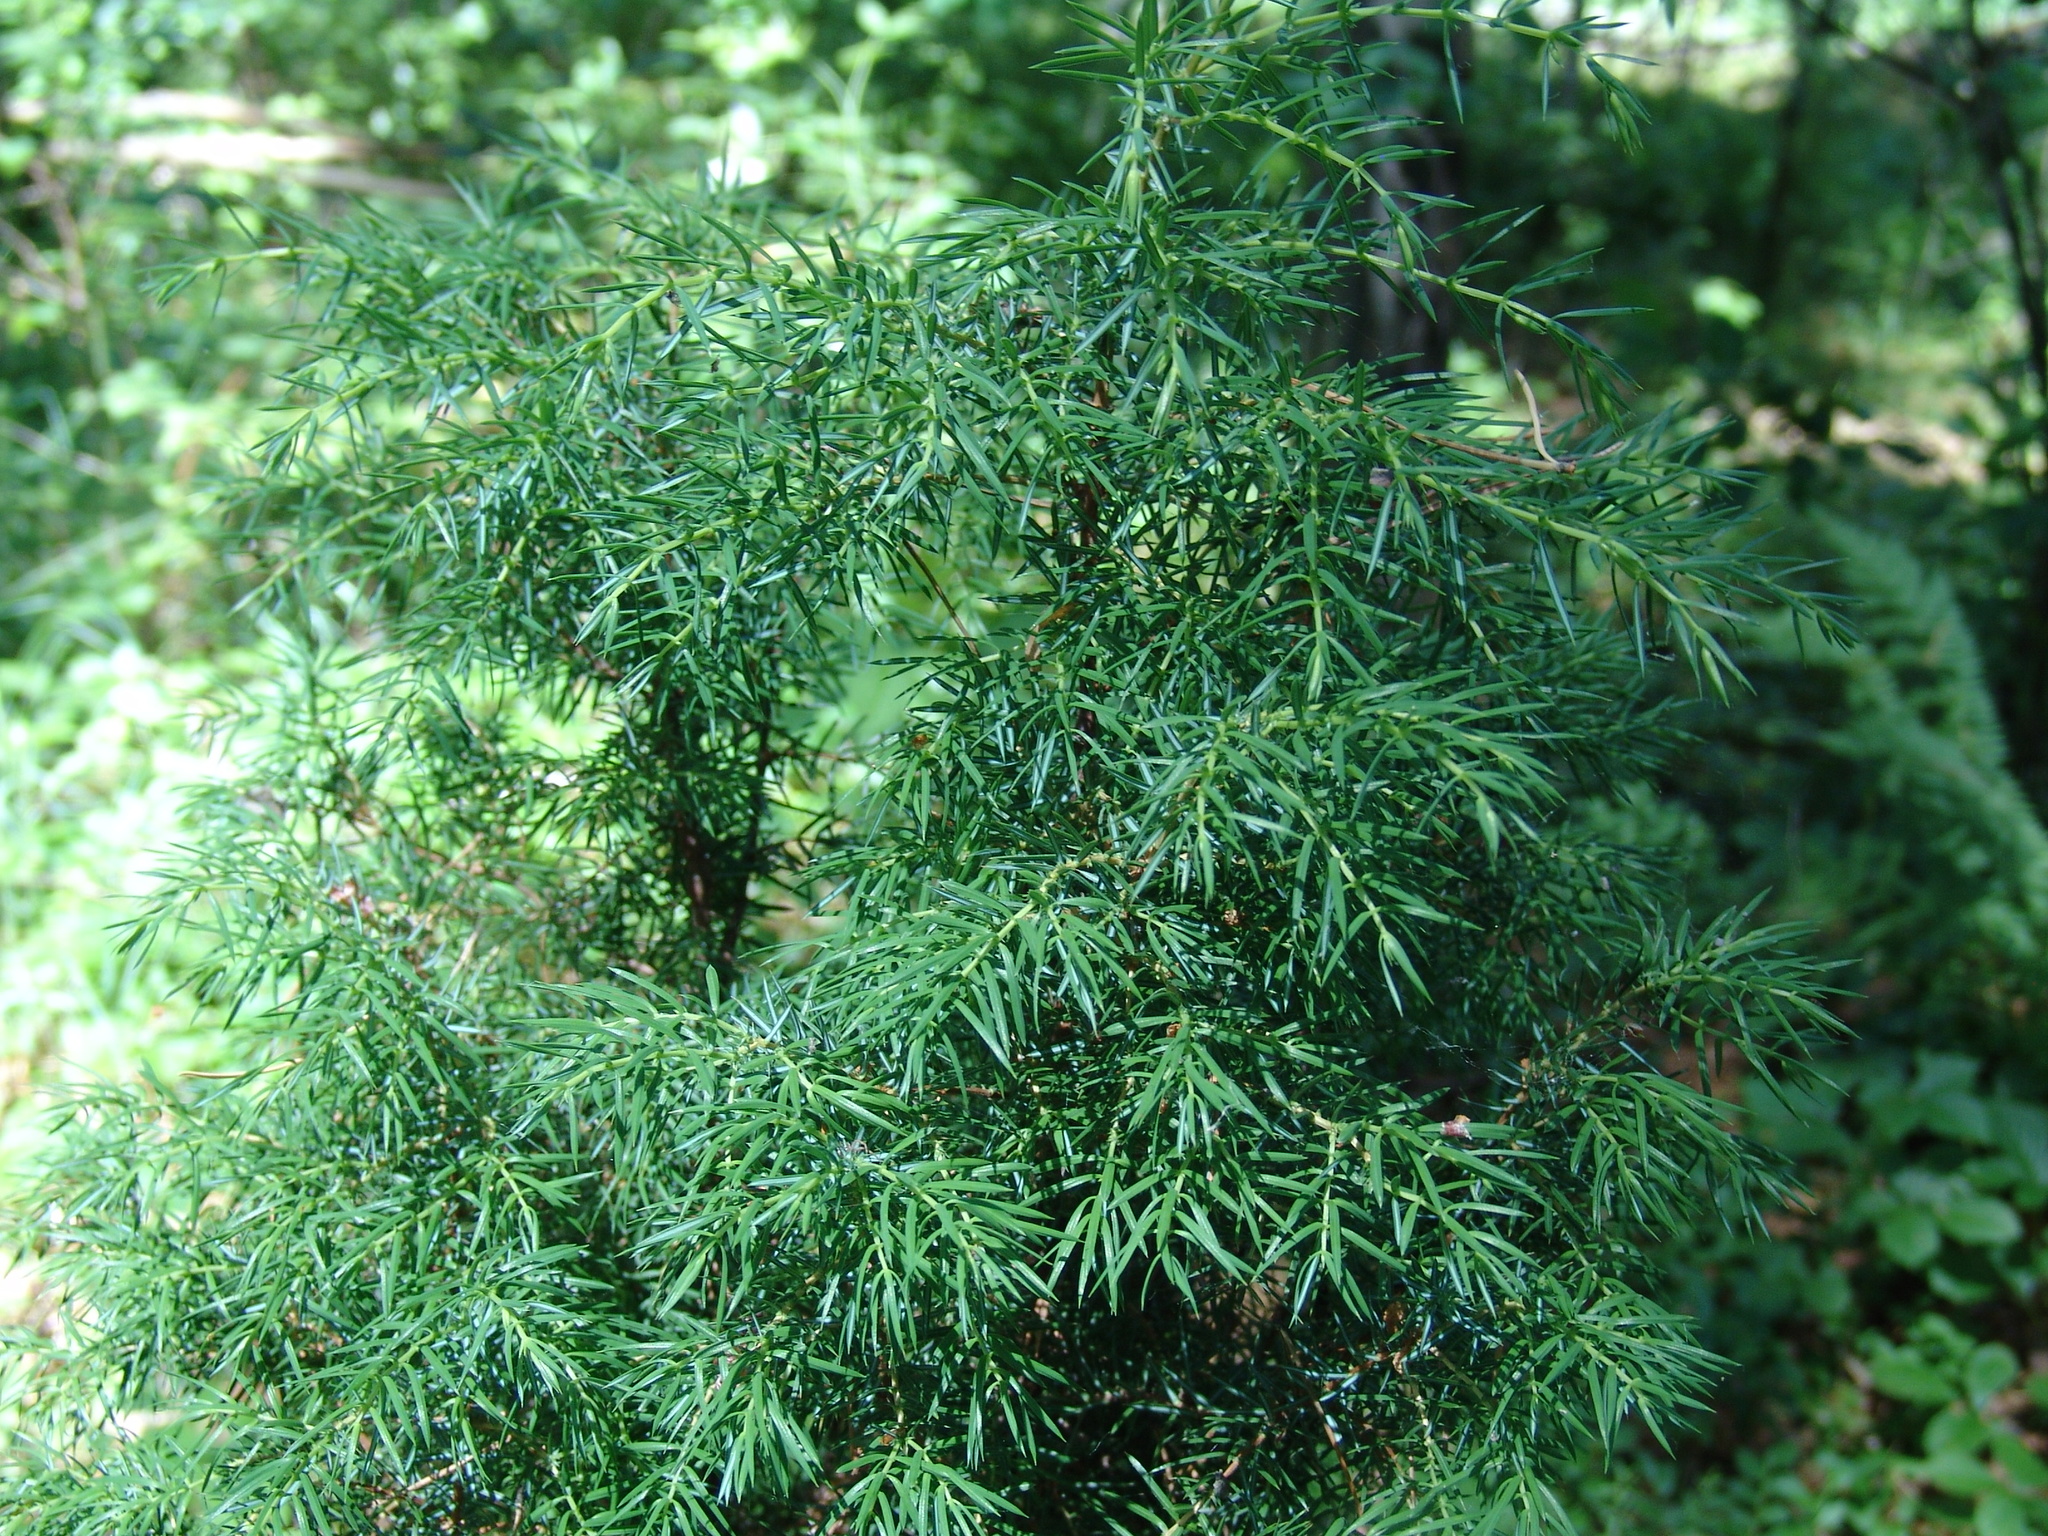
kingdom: Plantae
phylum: Tracheophyta
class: Pinopsida
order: Pinales
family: Cupressaceae
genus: Juniperus
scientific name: Juniperus communis
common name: Common juniper
